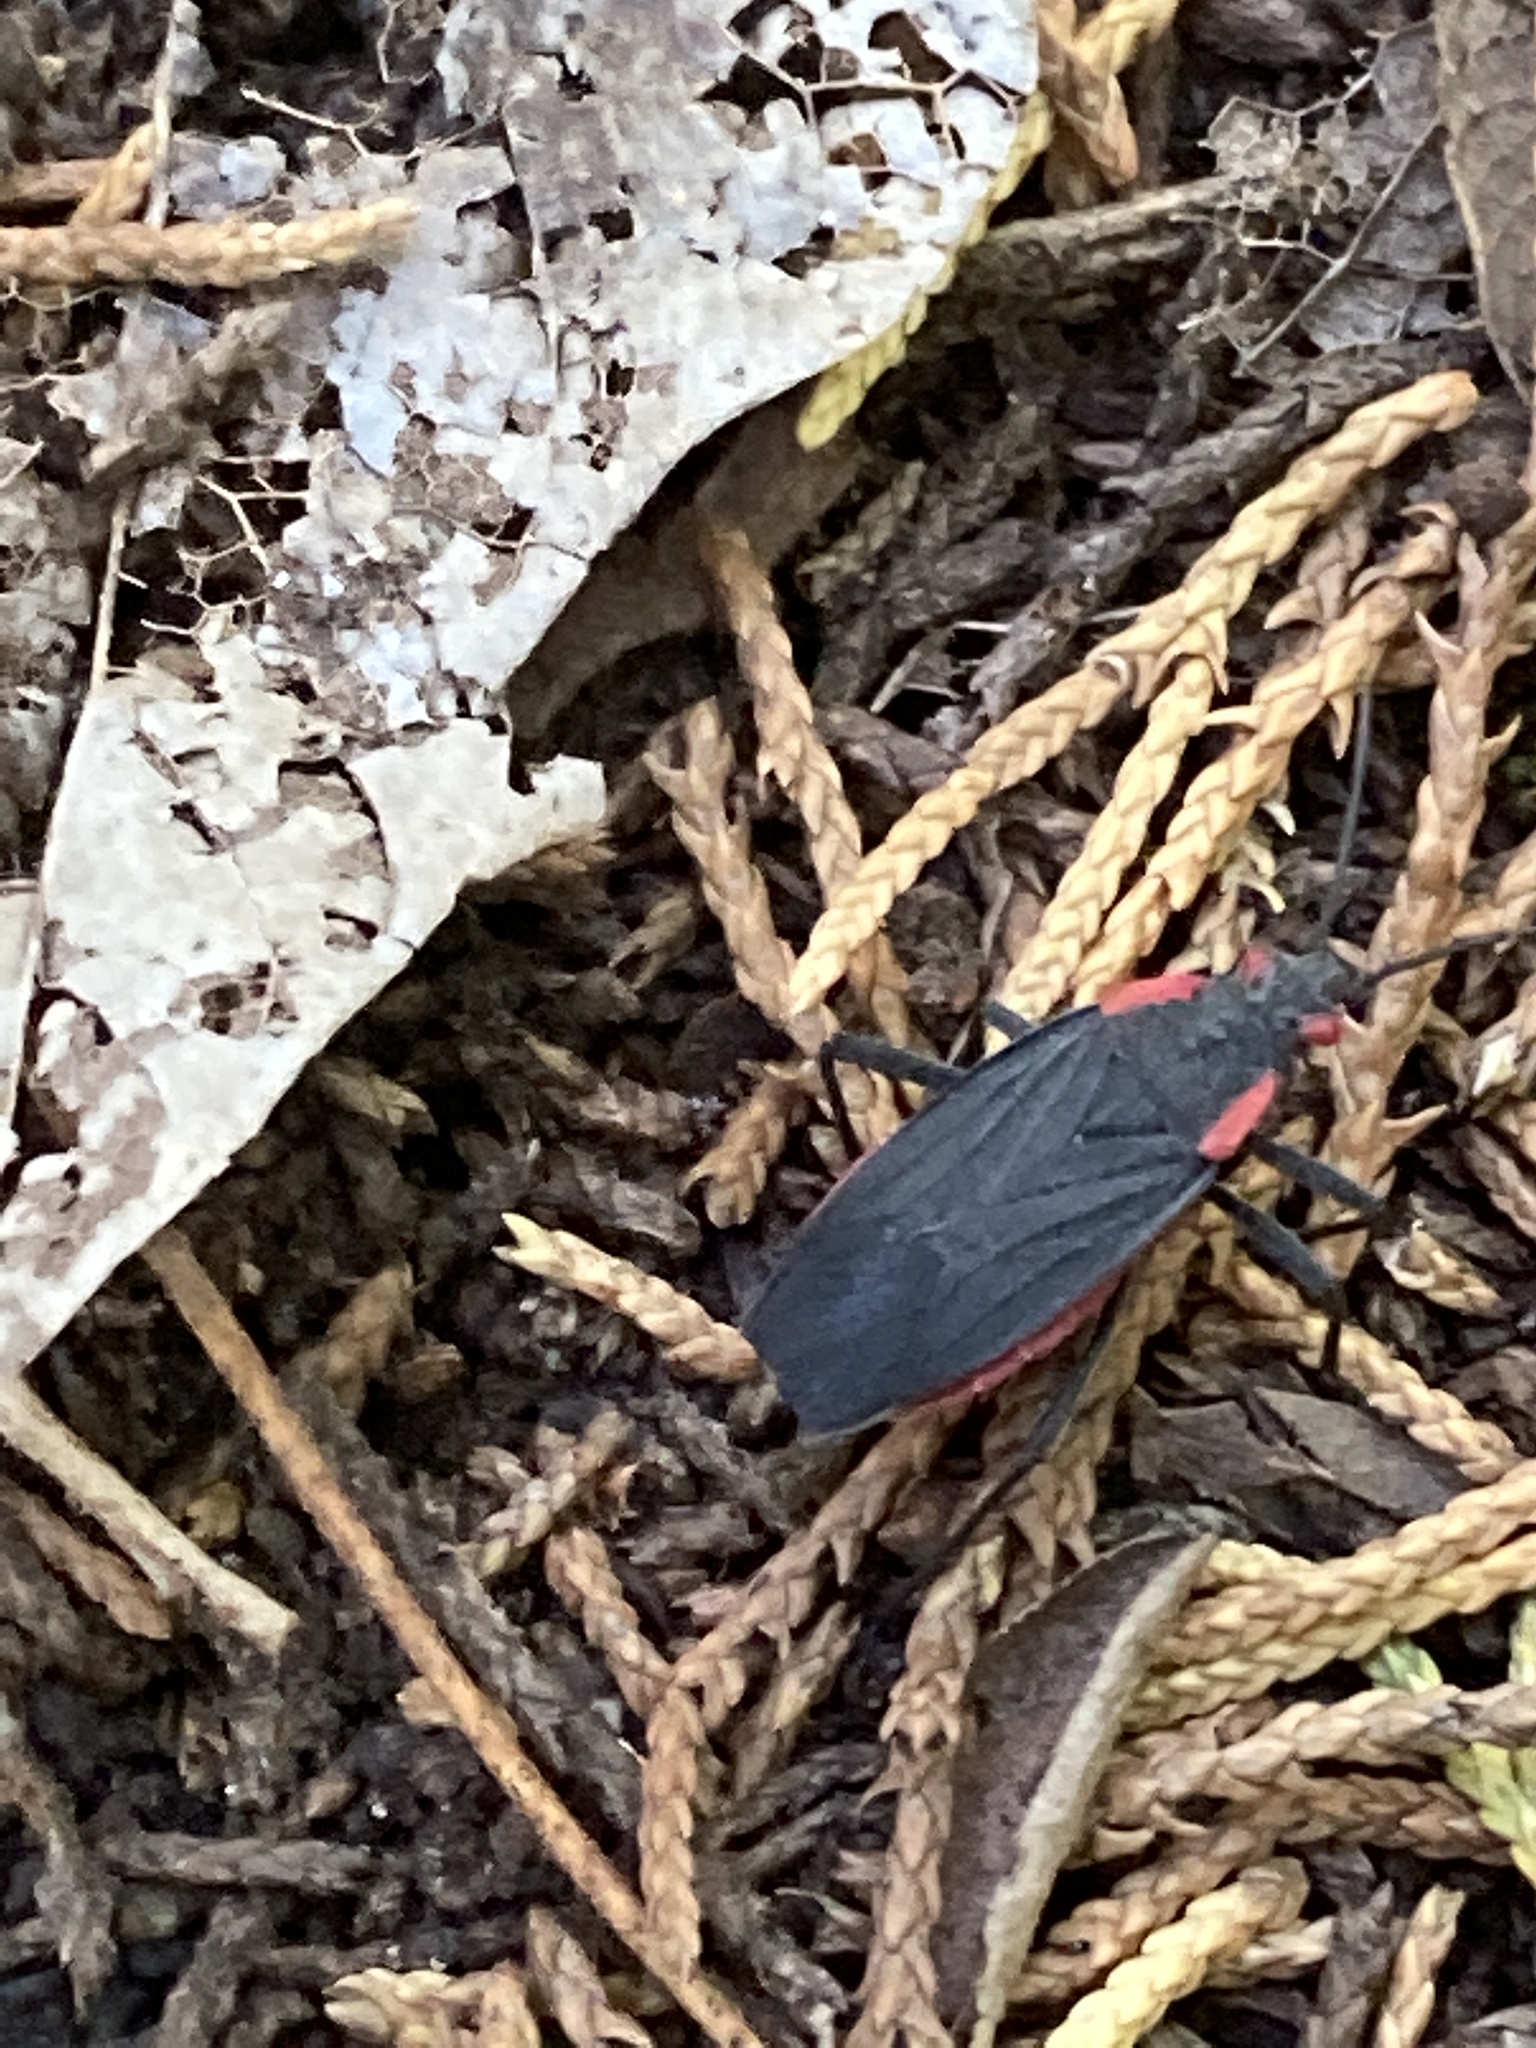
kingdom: Animalia
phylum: Arthropoda
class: Insecta
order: Hemiptera
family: Rhopalidae
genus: Jadera
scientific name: Jadera haematoloma
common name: Red-shouldered bug
